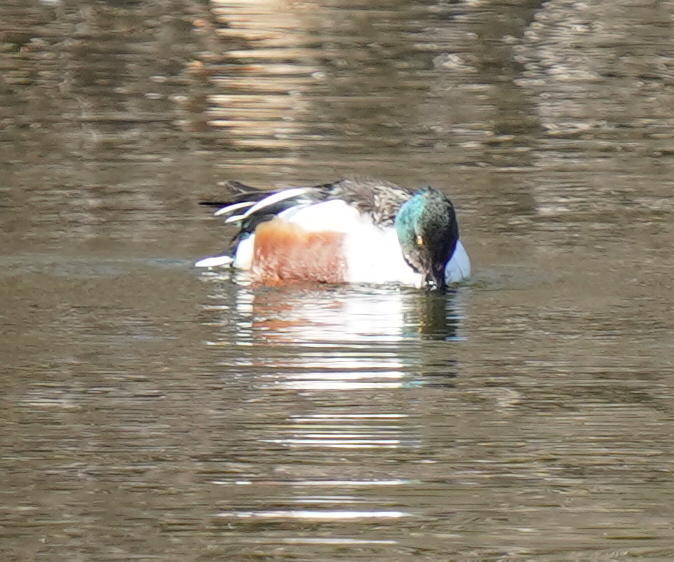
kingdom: Animalia
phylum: Chordata
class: Aves
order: Anseriformes
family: Anatidae
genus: Spatula
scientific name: Spatula clypeata
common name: Northern shoveler
